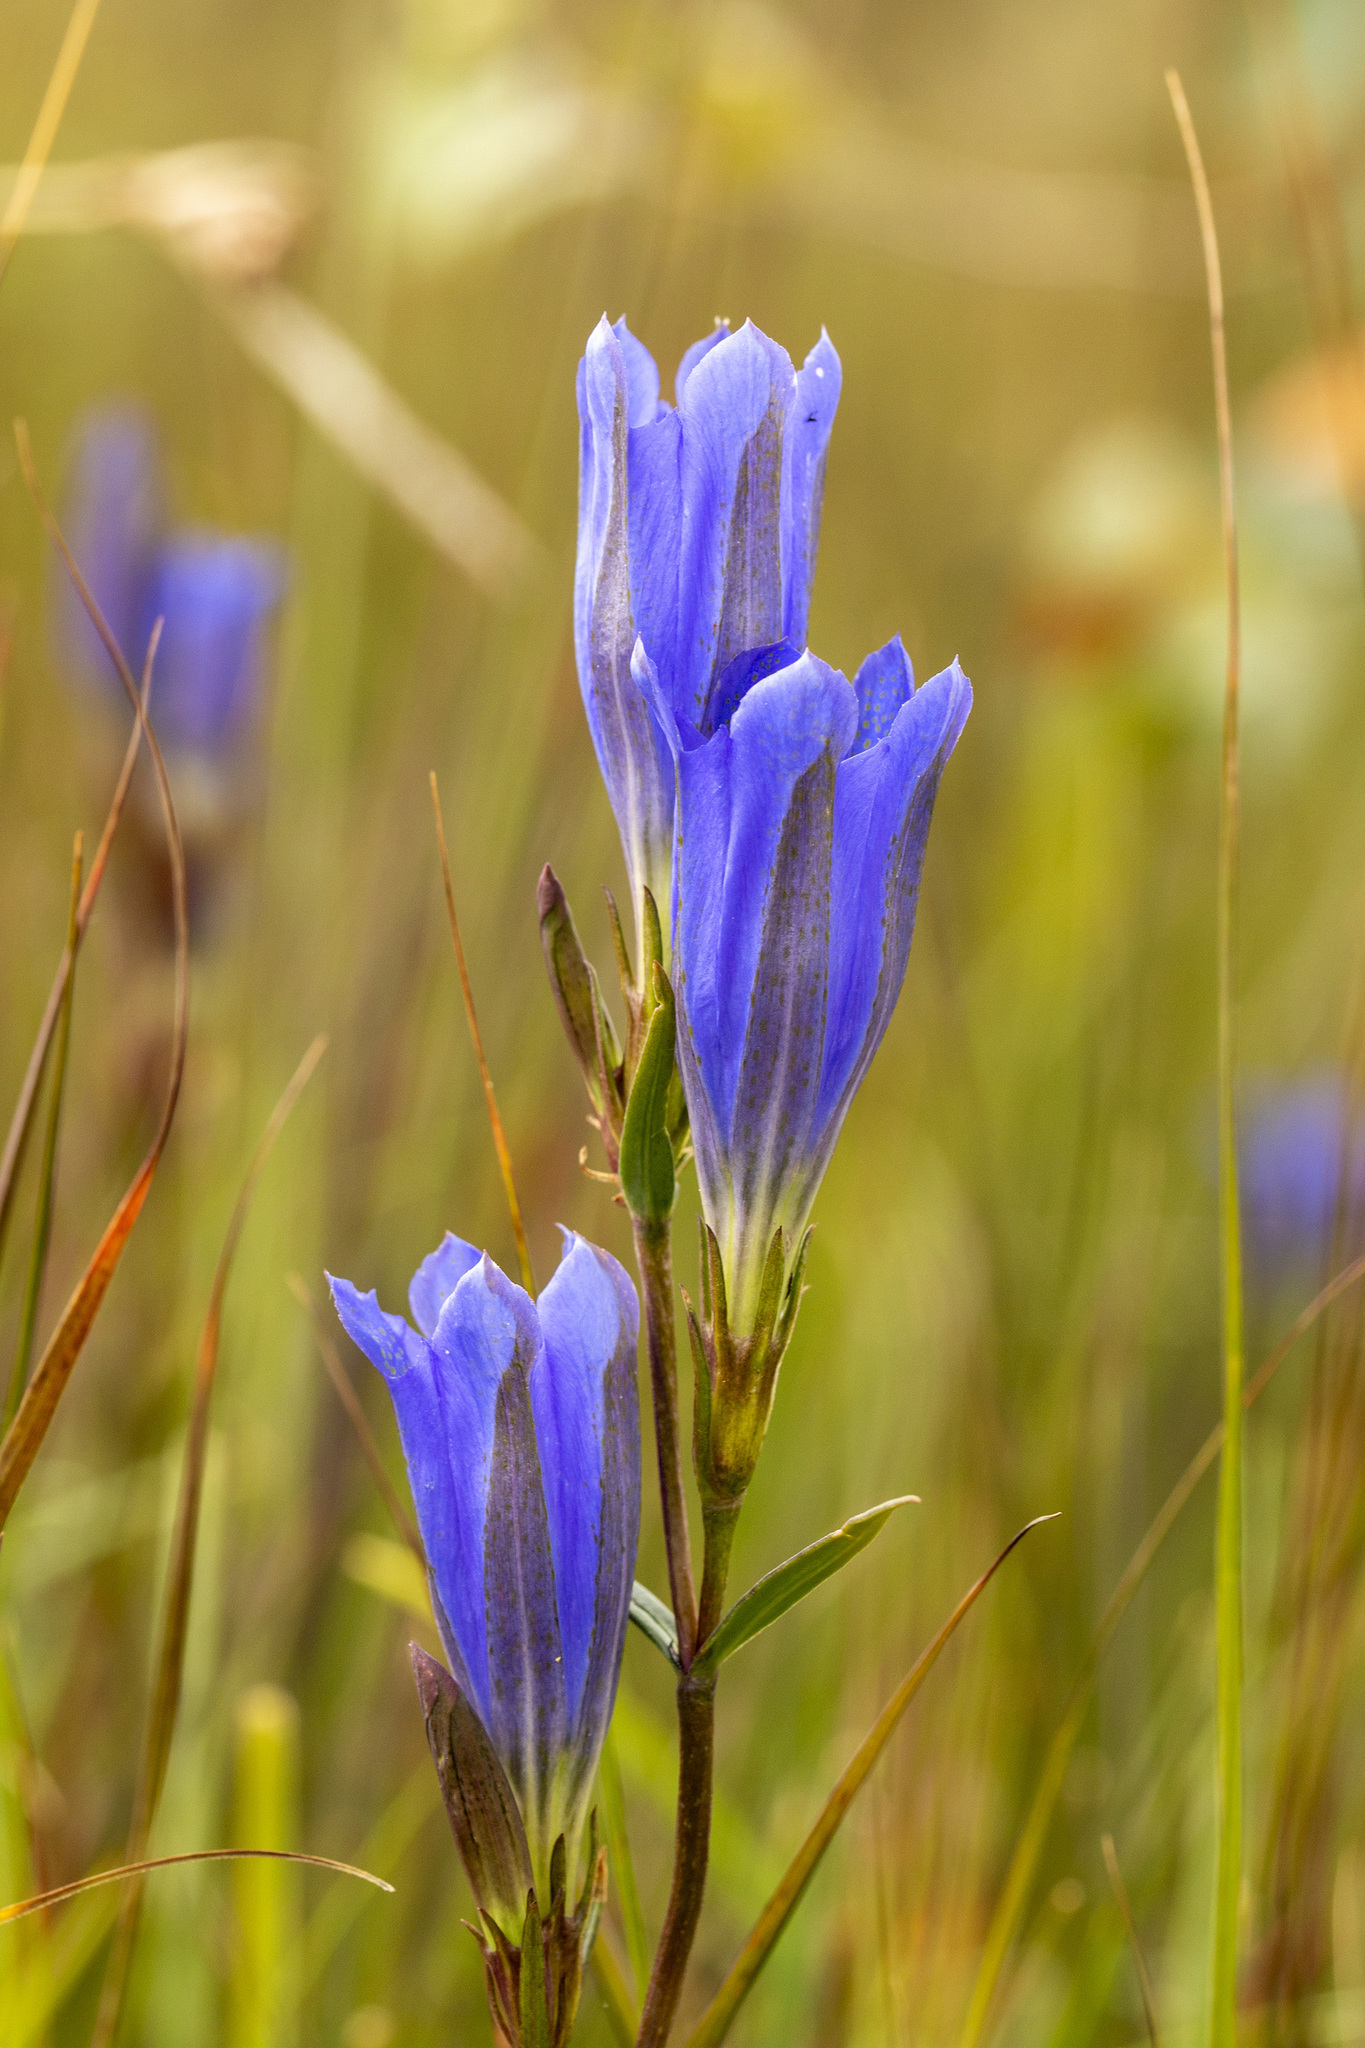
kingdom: Plantae
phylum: Tracheophyta
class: Magnoliopsida
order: Gentianales
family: Gentianaceae
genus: Gentiana
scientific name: Gentiana pneumonanthe
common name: Marsh gentian
